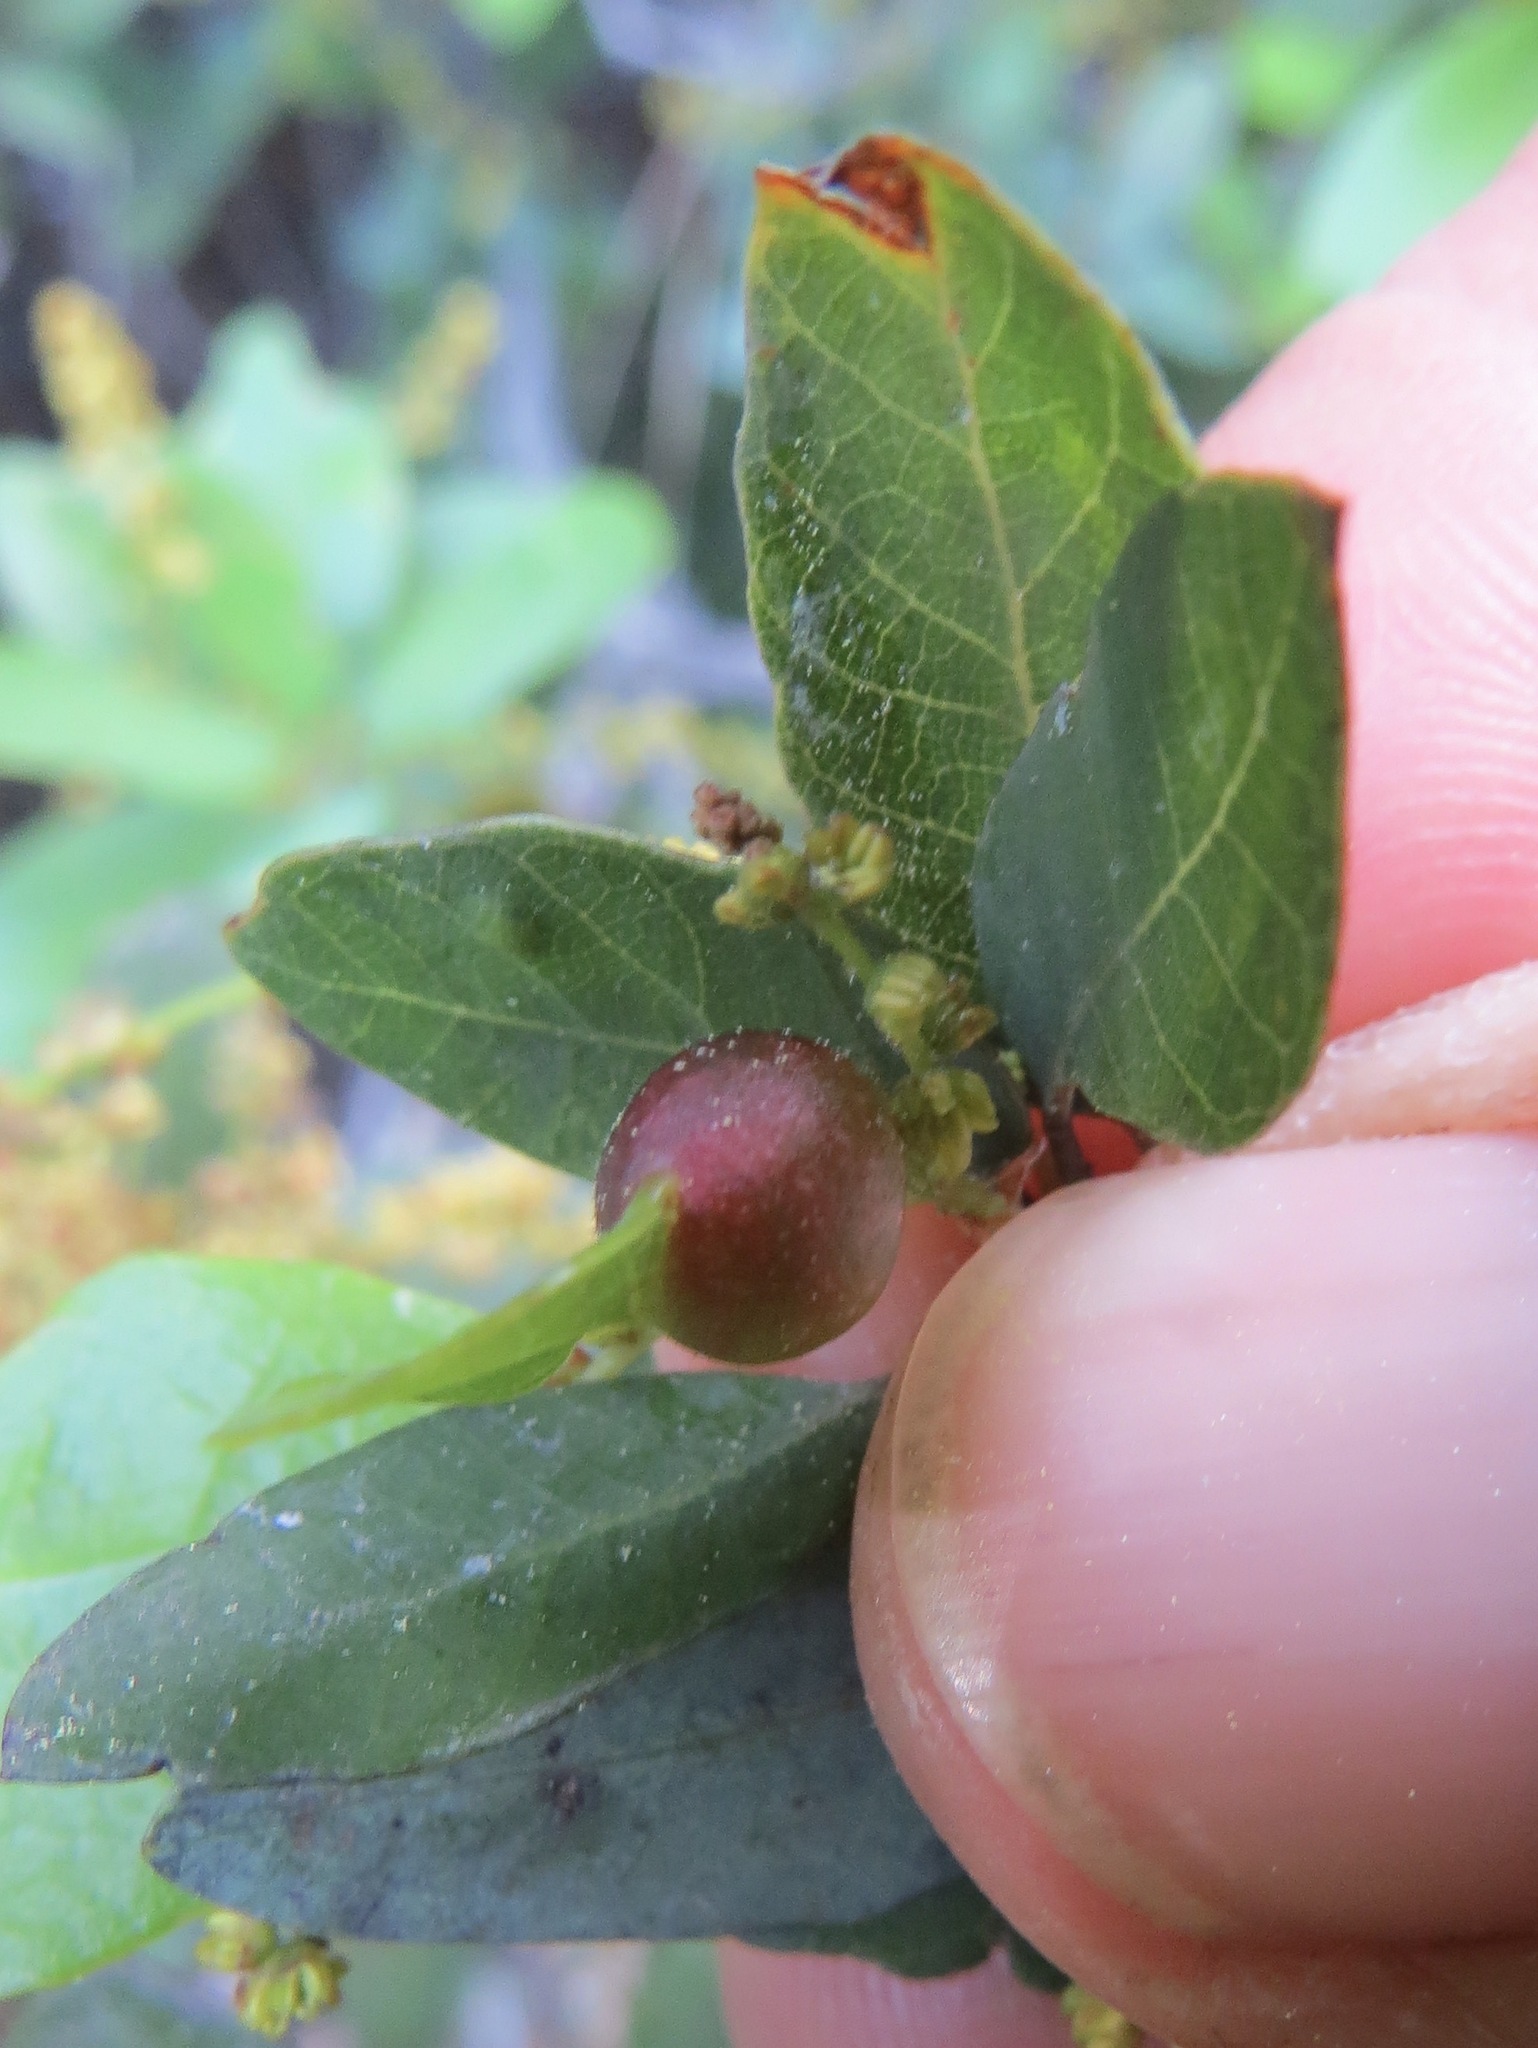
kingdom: Animalia
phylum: Arthropoda
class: Insecta
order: Hymenoptera
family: Cynipidae
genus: Heteroecus
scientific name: Heteroecus
